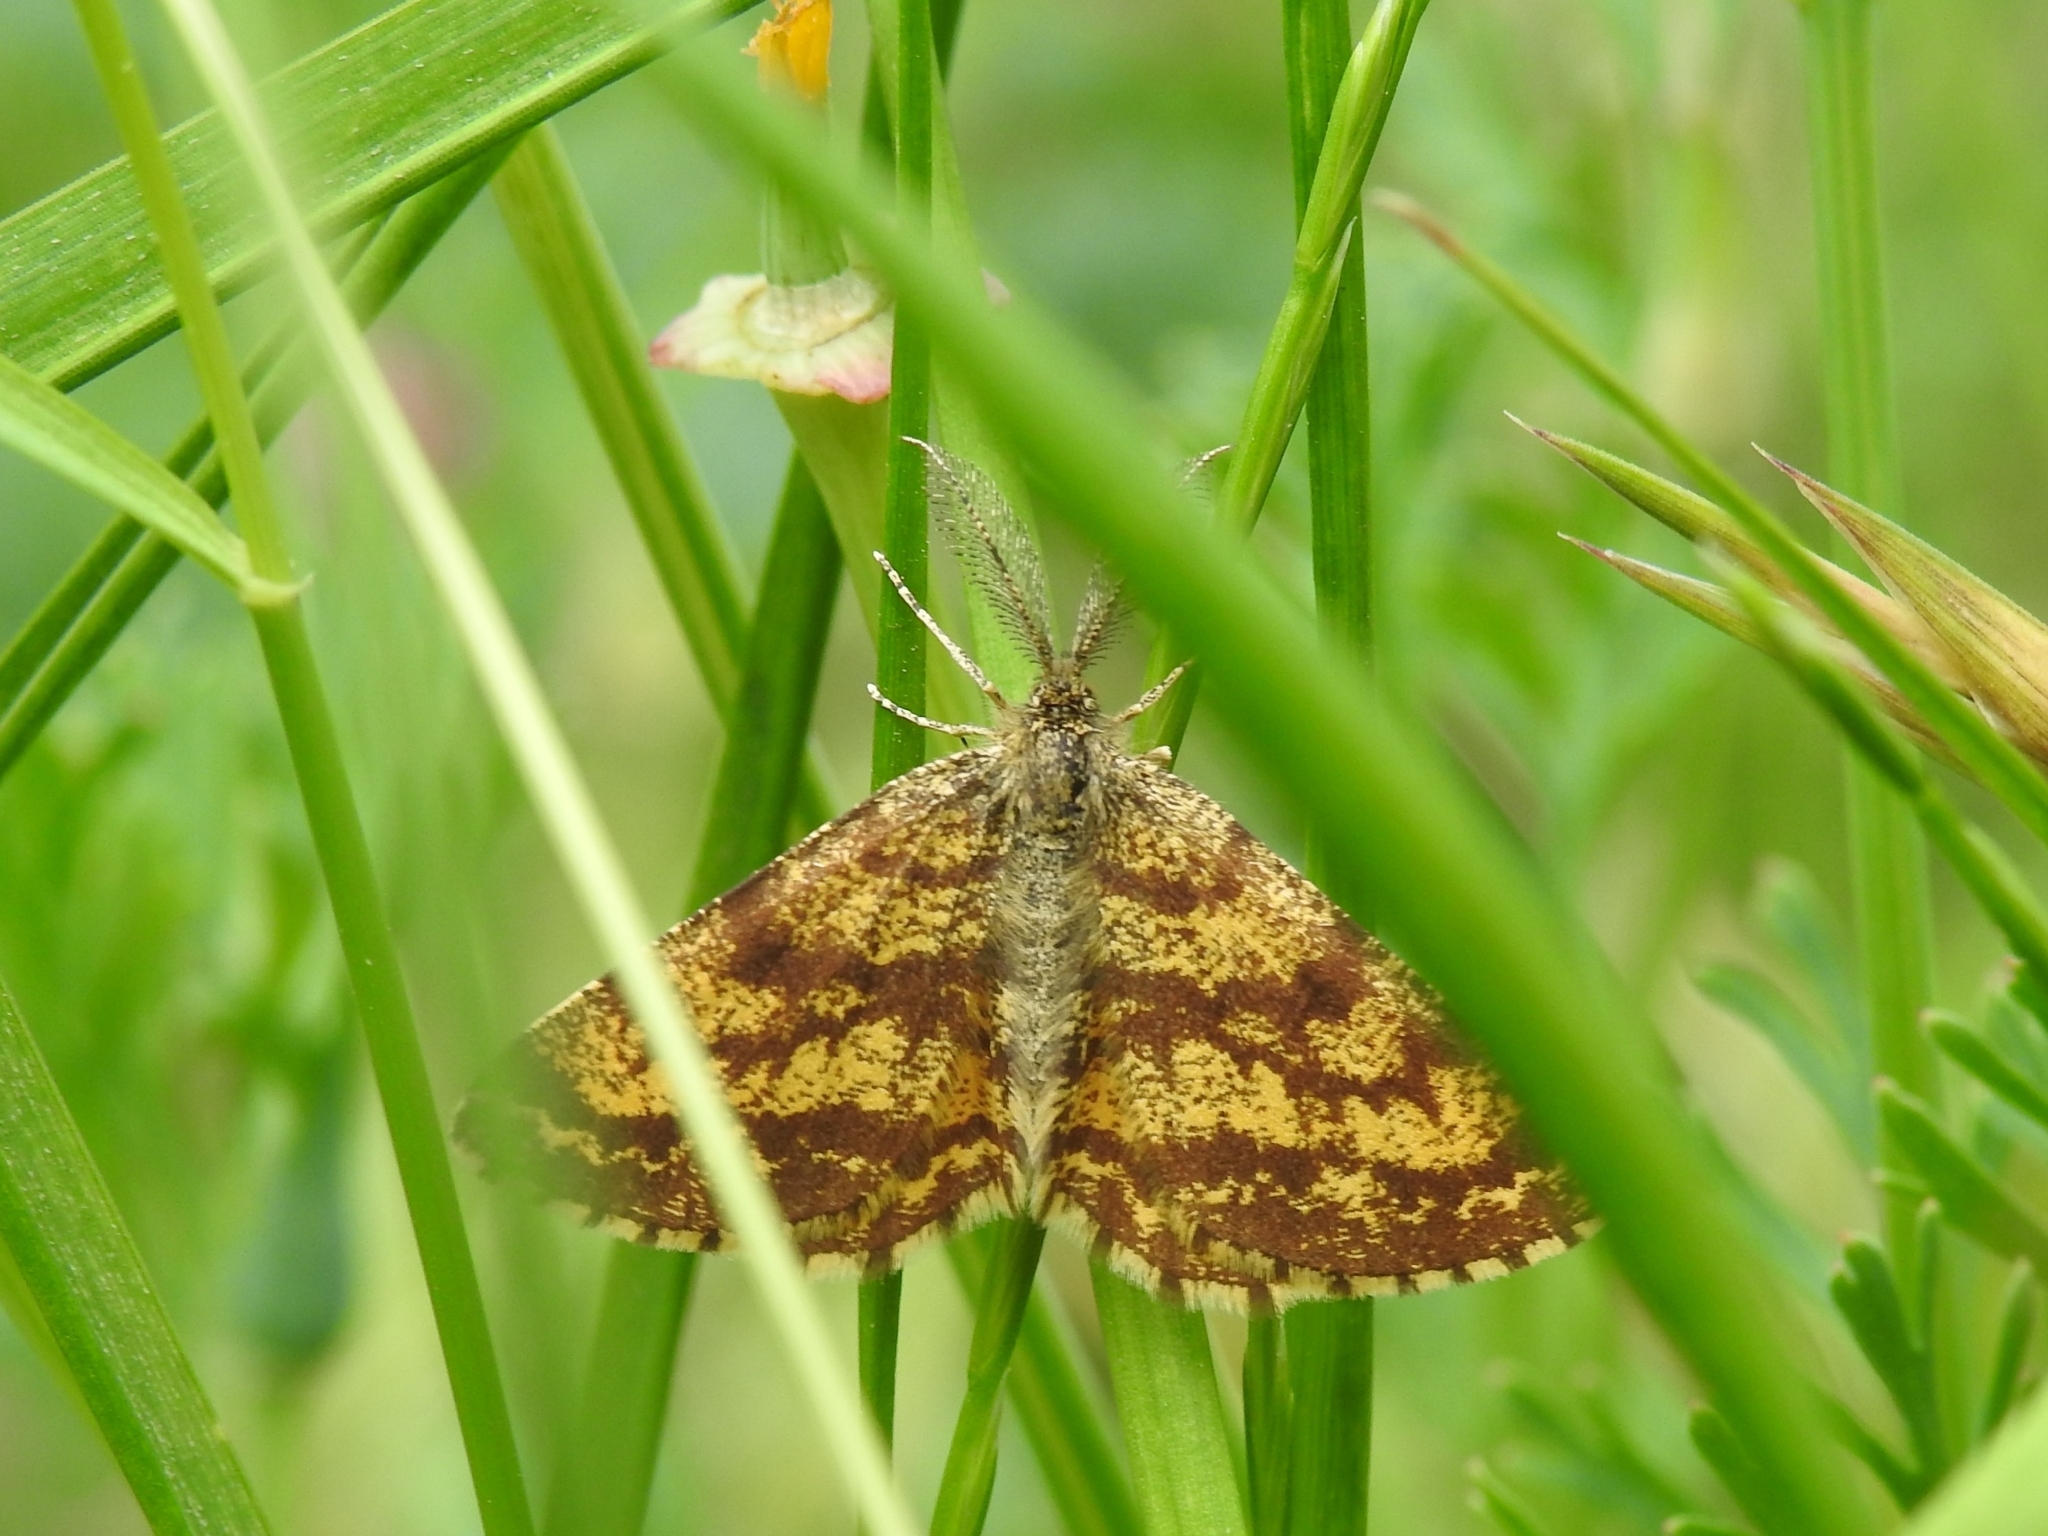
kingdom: Animalia
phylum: Arthropoda
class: Insecta
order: Lepidoptera
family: Geometridae
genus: Ematurga
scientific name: Ematurga atomaria
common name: Common heath
